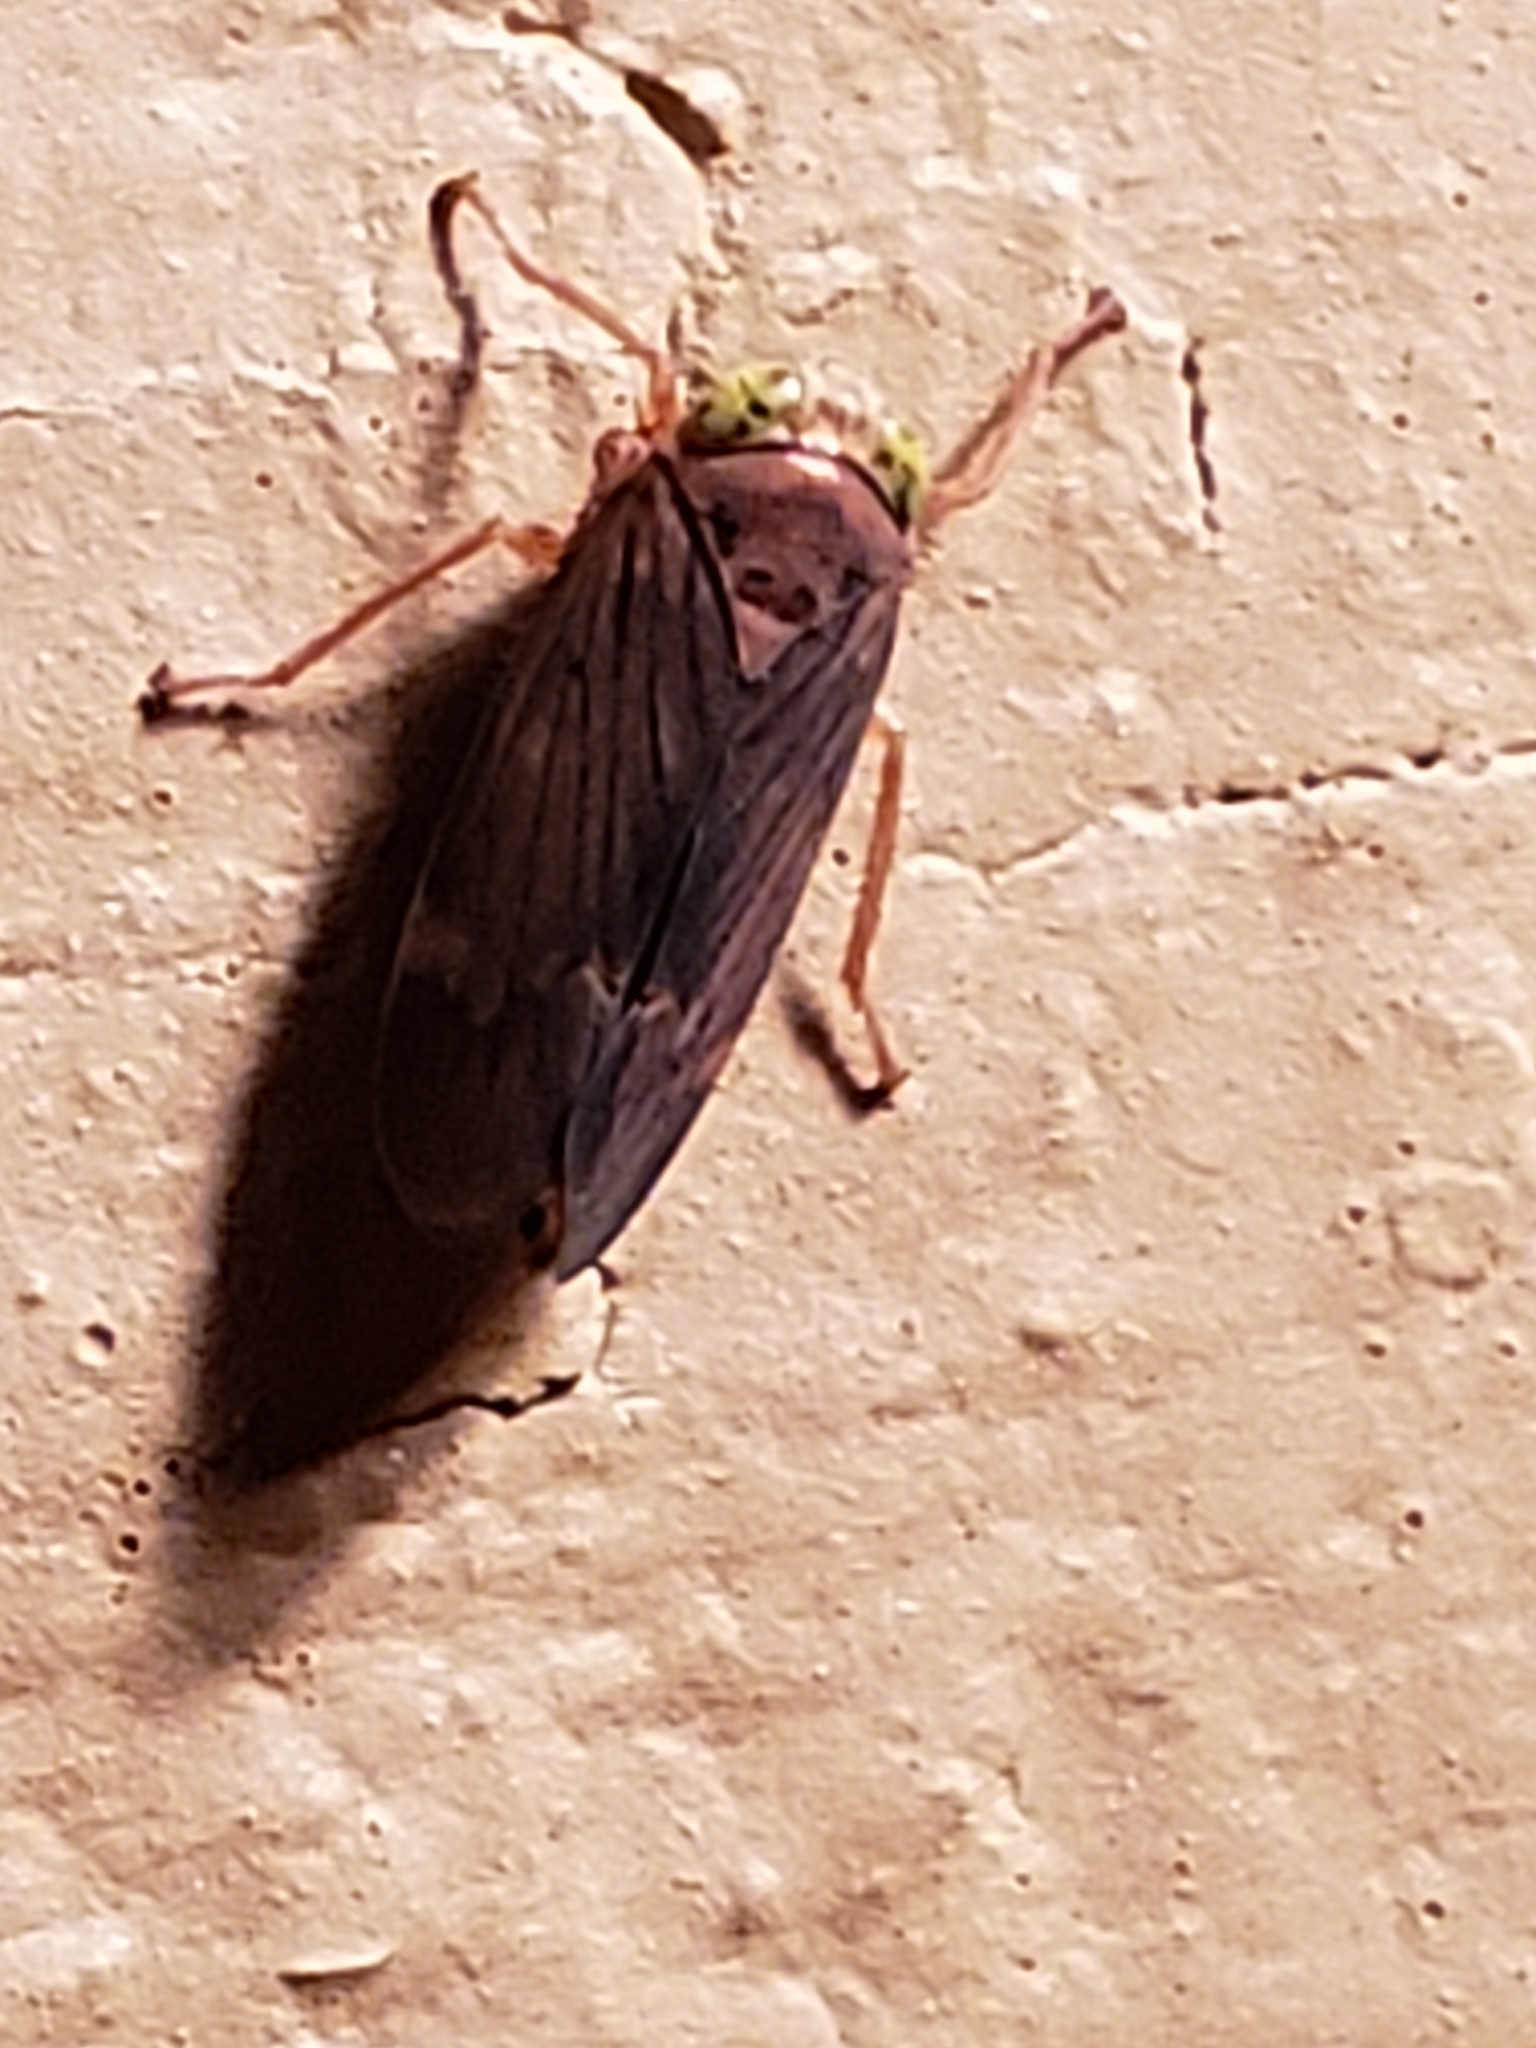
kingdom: Animalia
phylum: Arthropoda
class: Insecta
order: Hemiptera
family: Cicadellidae
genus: Jikradia
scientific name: Jikradia olitoria
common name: Coppery leafhopper
